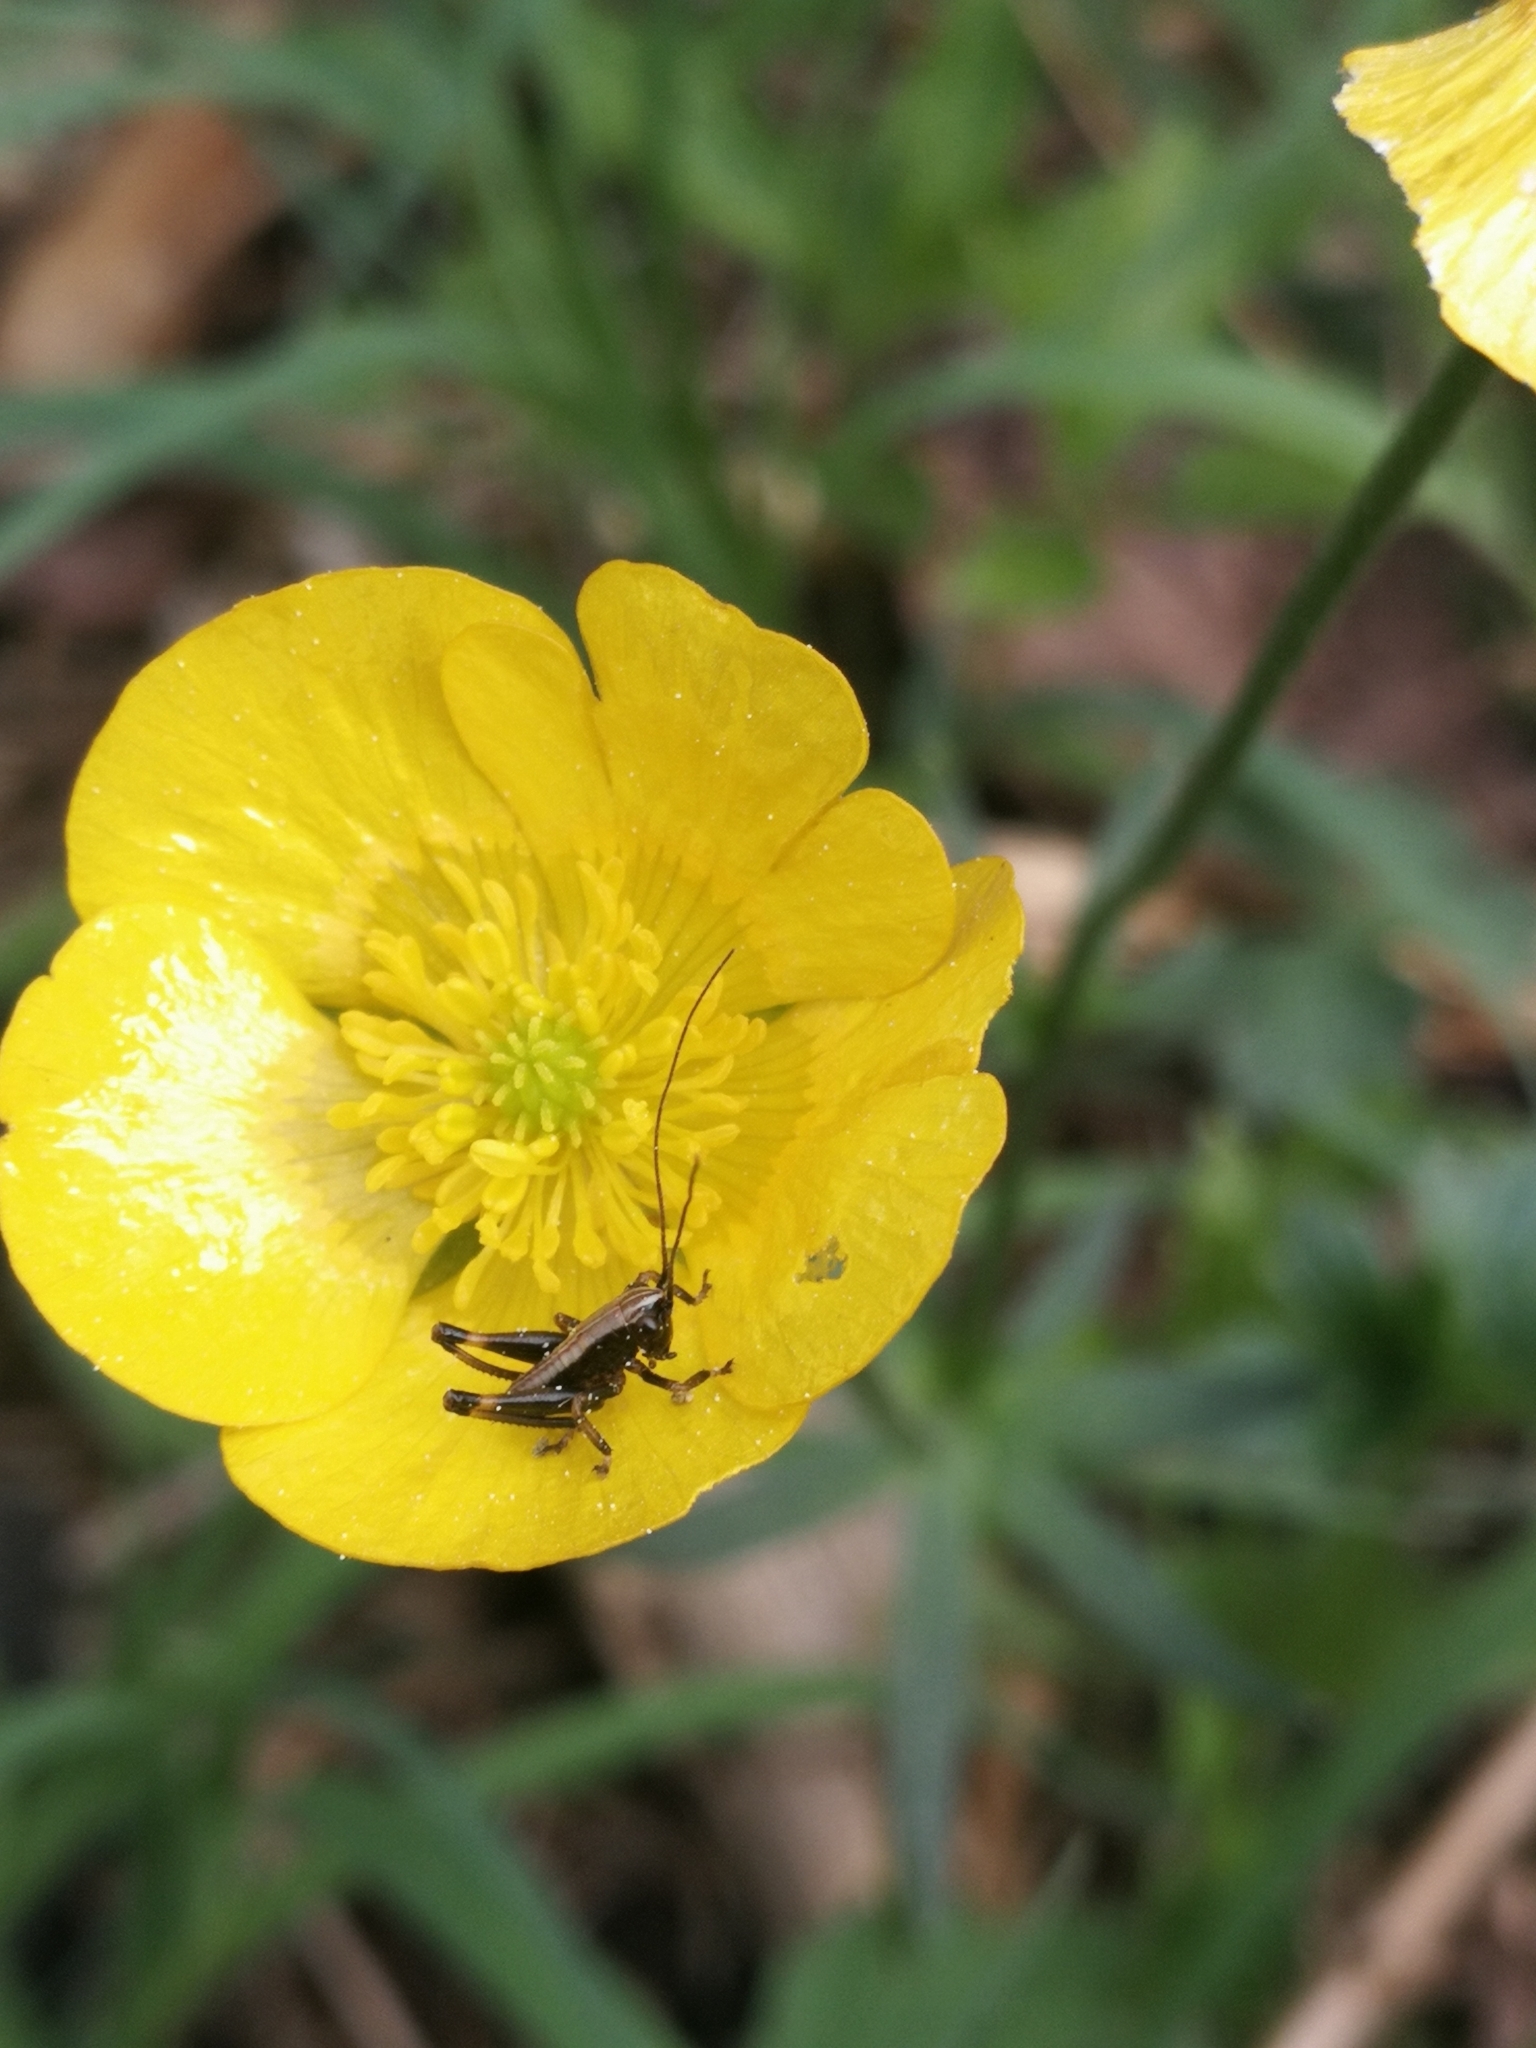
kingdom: Animalia
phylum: Arthropoda
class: Insecta
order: Orthoptera
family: Tettigoniidae
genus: Pholidoptera
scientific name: Pholidoptera griseoaptera
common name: Dark bush-cricket
